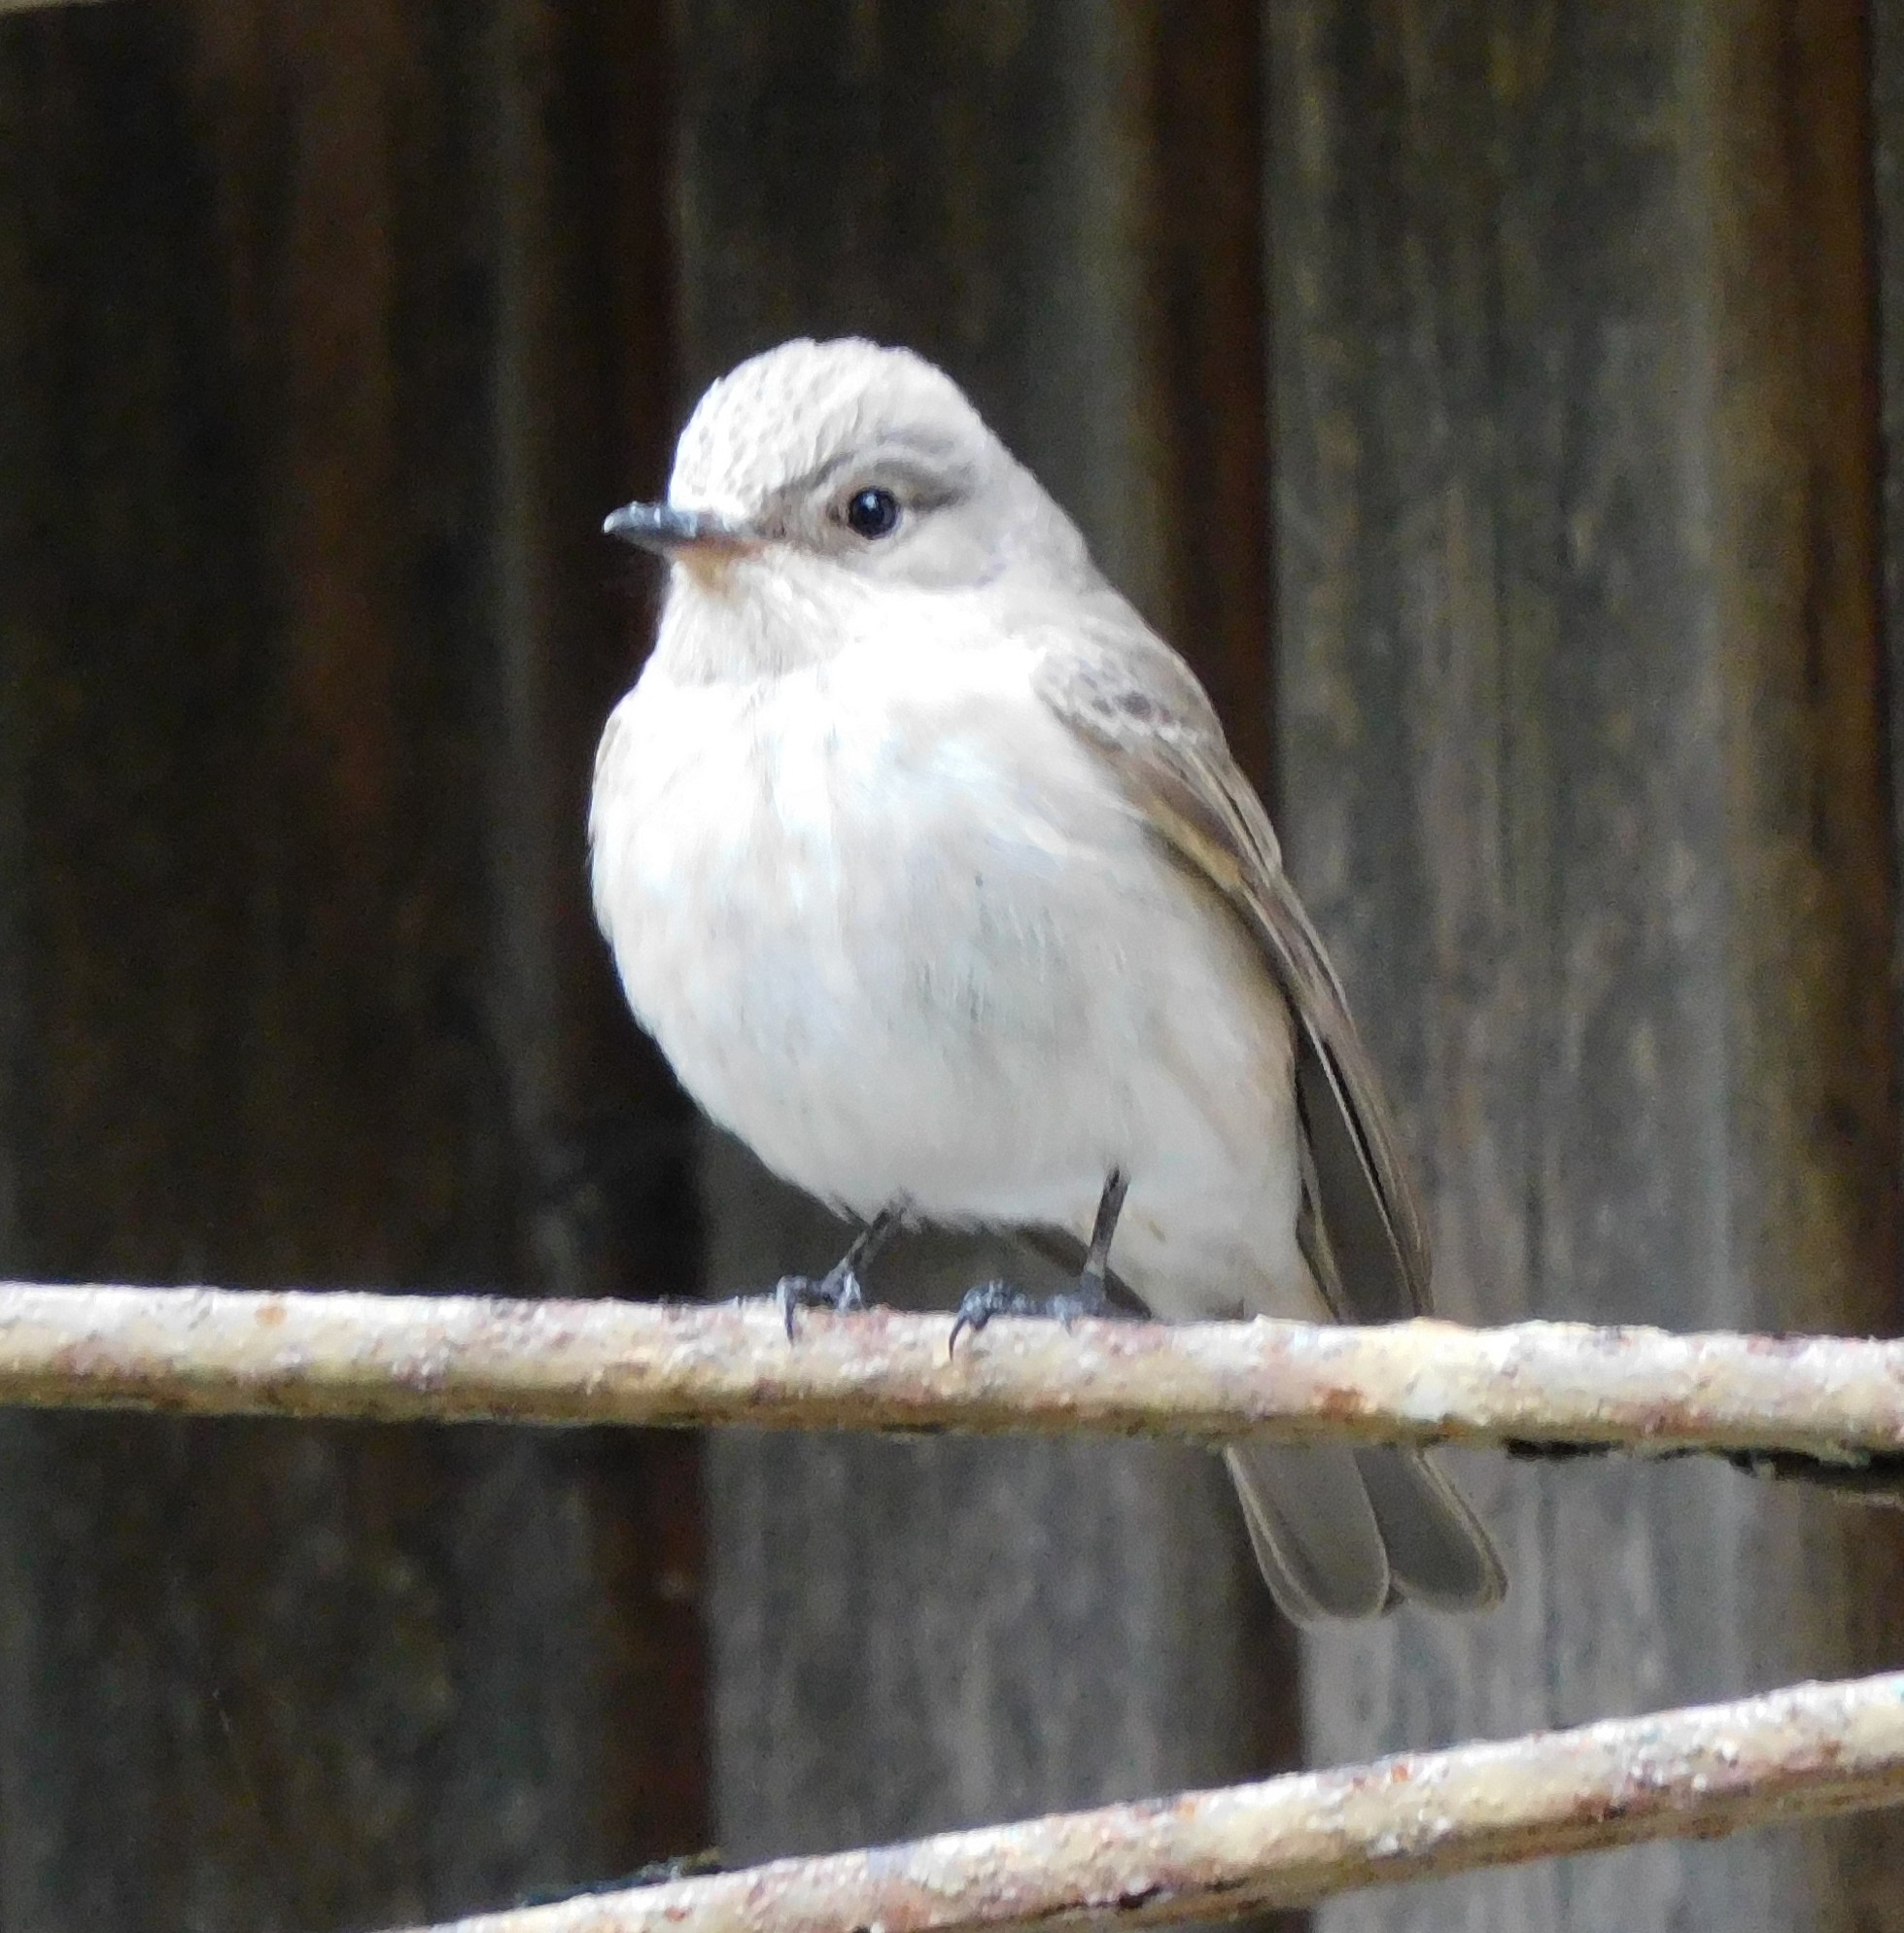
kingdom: Animalia
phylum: Chordata
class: Aves
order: Passeriformes
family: Muscicapidae
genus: Muscicapa
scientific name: Muscicapa striata
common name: Spotted flycatcher
